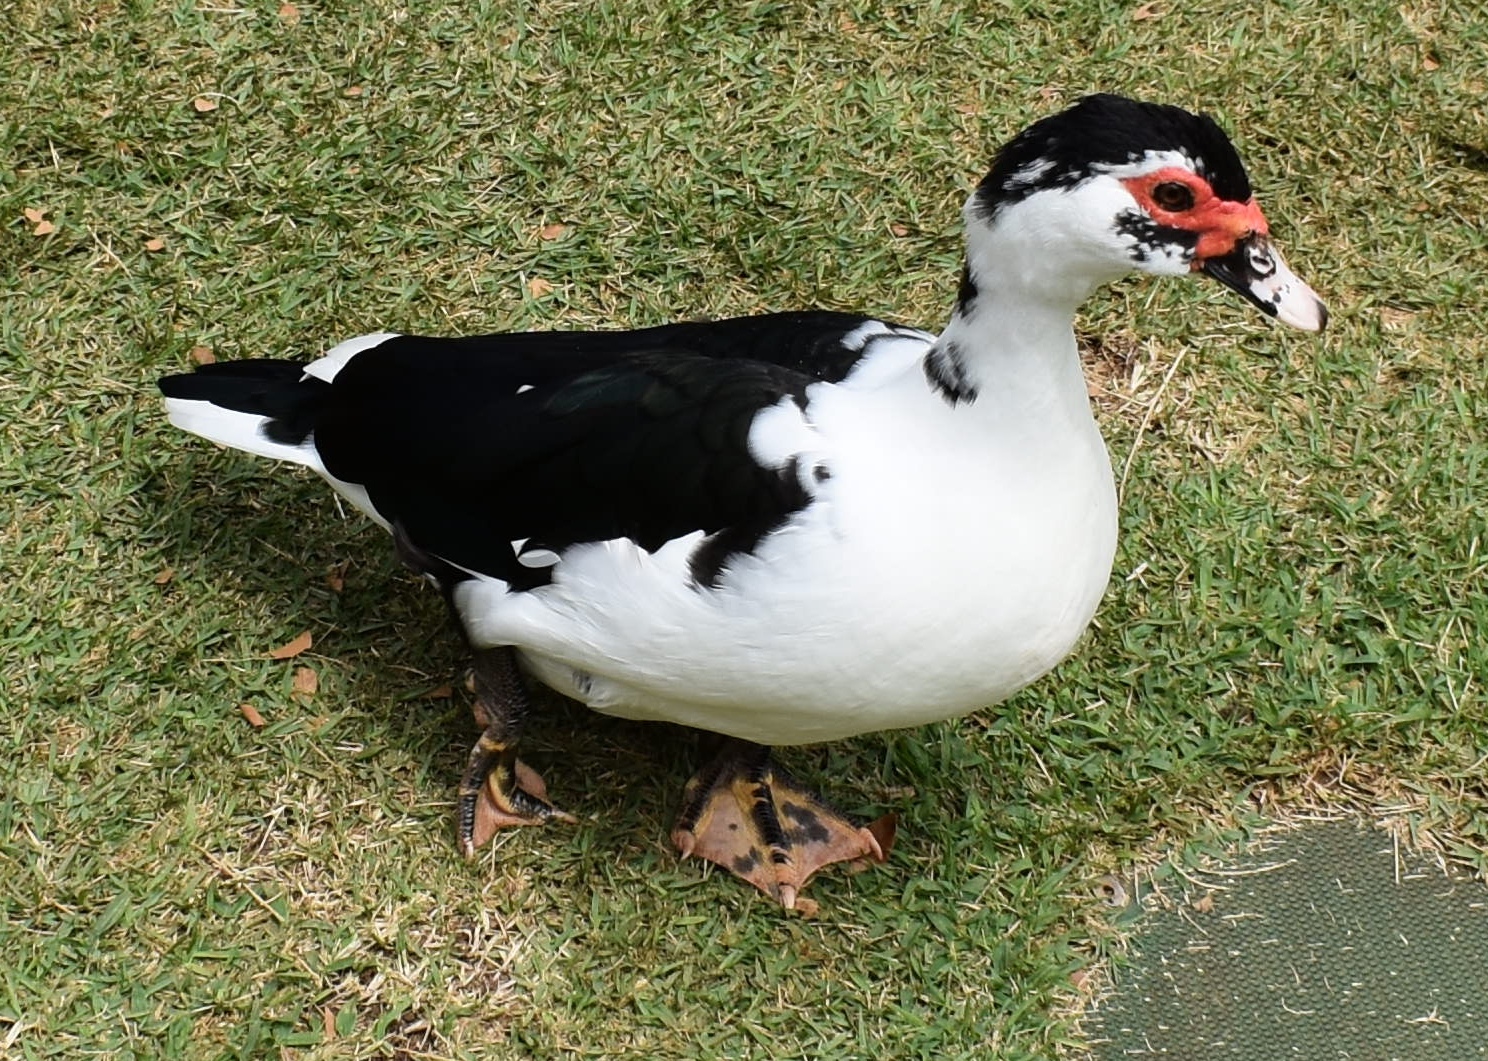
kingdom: Animalia
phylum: Chordata
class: Aves
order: Anseriformes
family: Anatidae
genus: Cairina
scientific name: Cairina moschata
